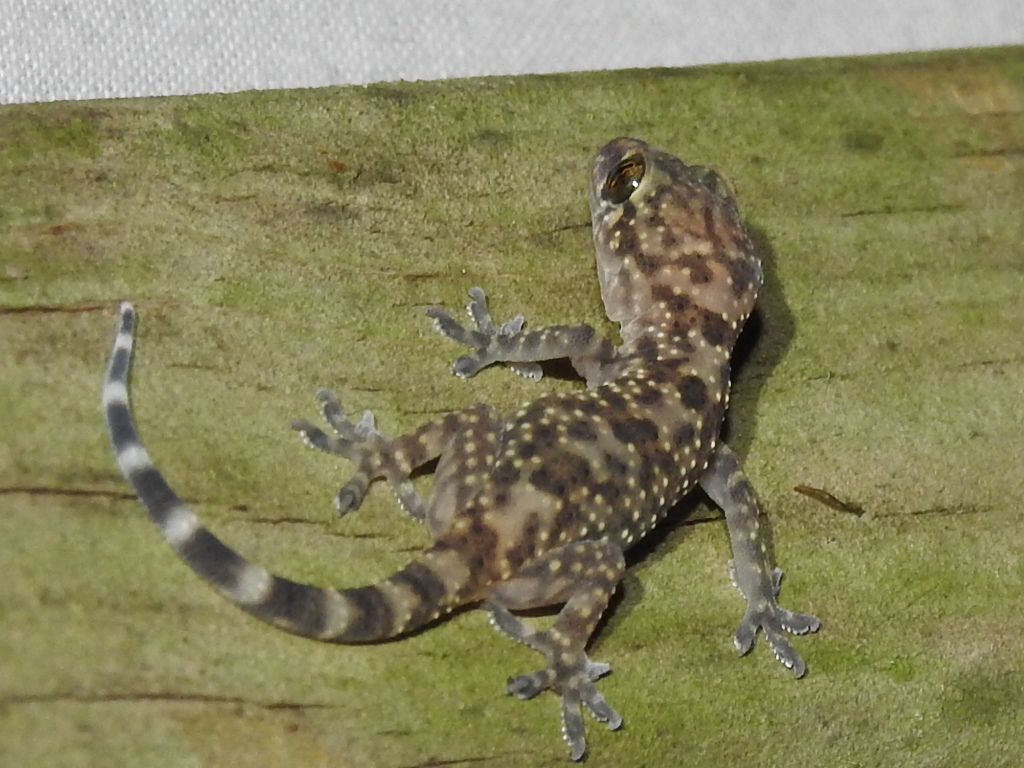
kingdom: Animalia
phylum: Chordata
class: Squamata
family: Gekkonidae
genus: Hemidactylus
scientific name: Hemidactylus turcicus
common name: Turkish gecko
